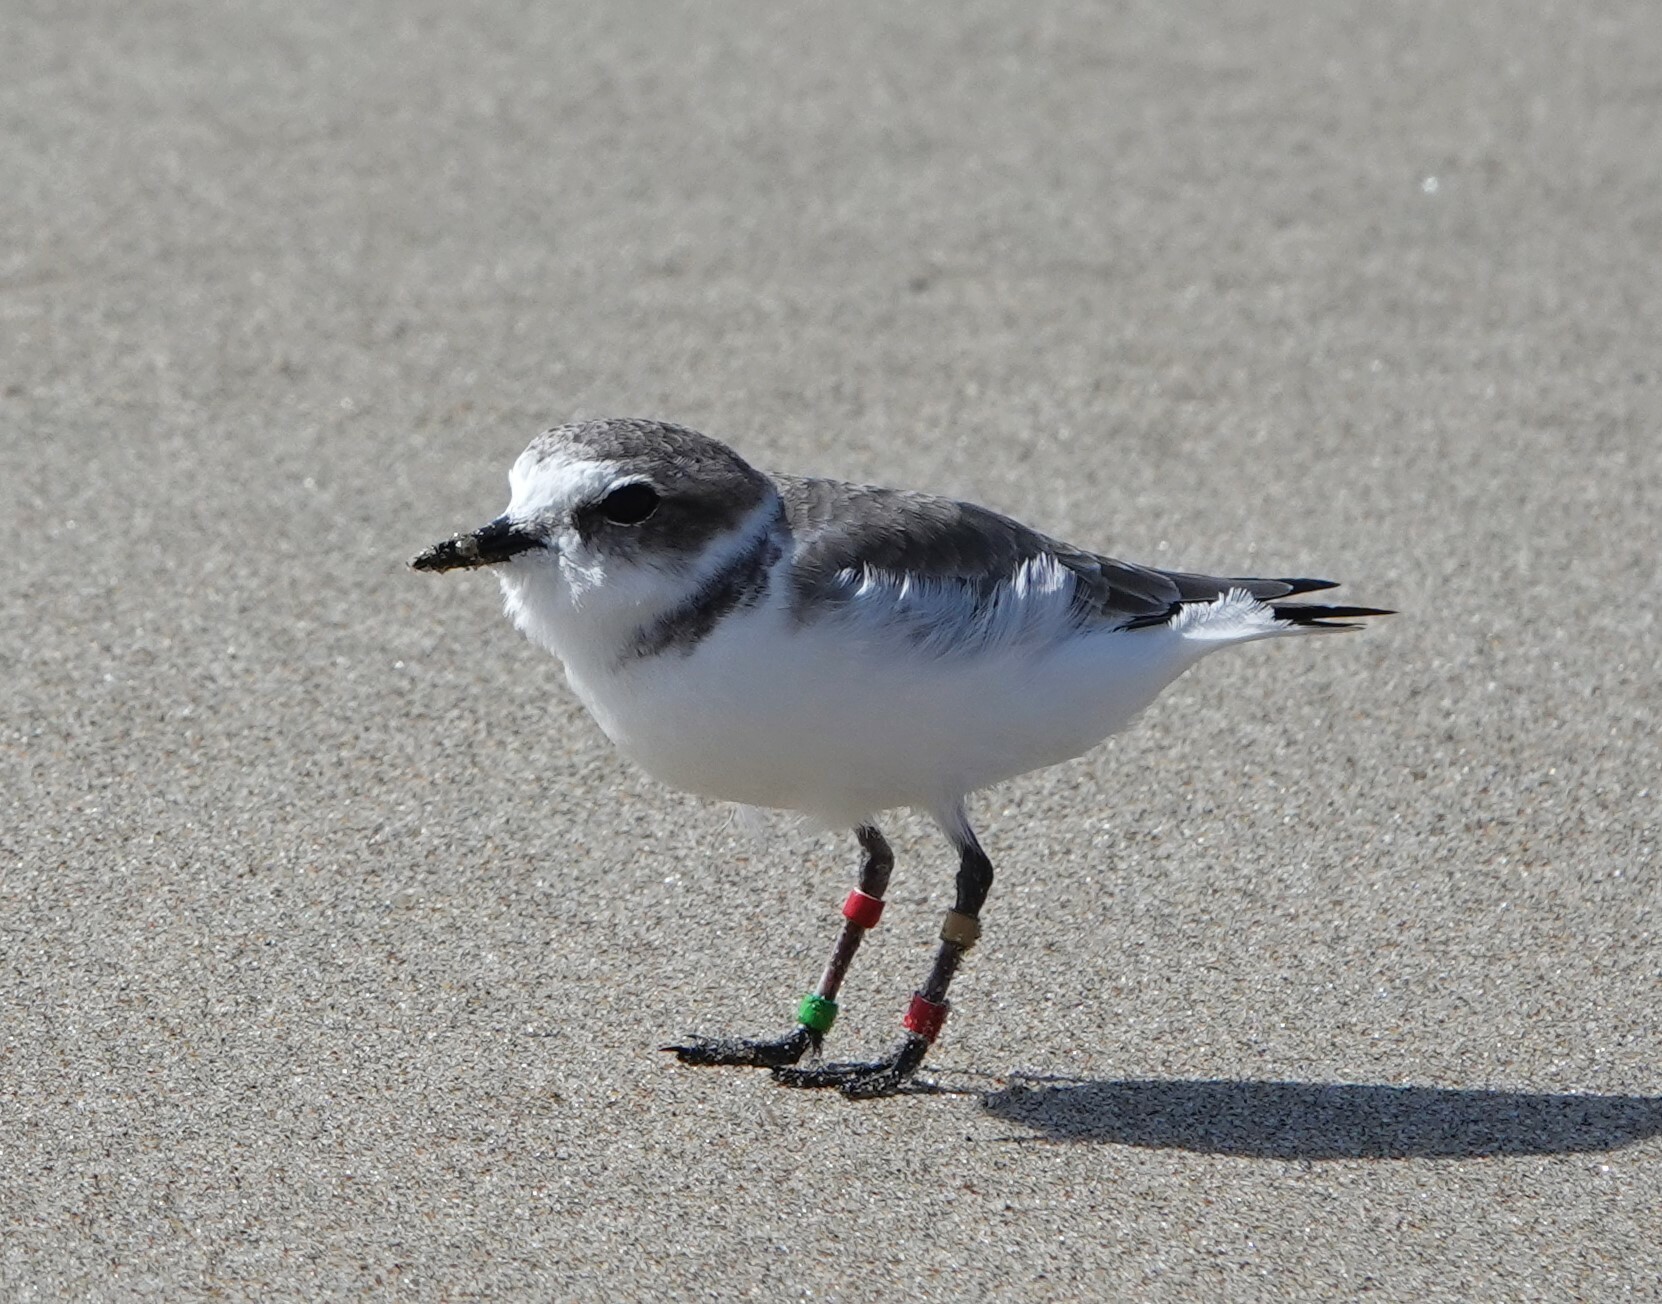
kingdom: Animalia
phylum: Chordata
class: Aves
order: Charadriiformes
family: Charadriidae
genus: Anarhynchus
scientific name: Anarhynchus
